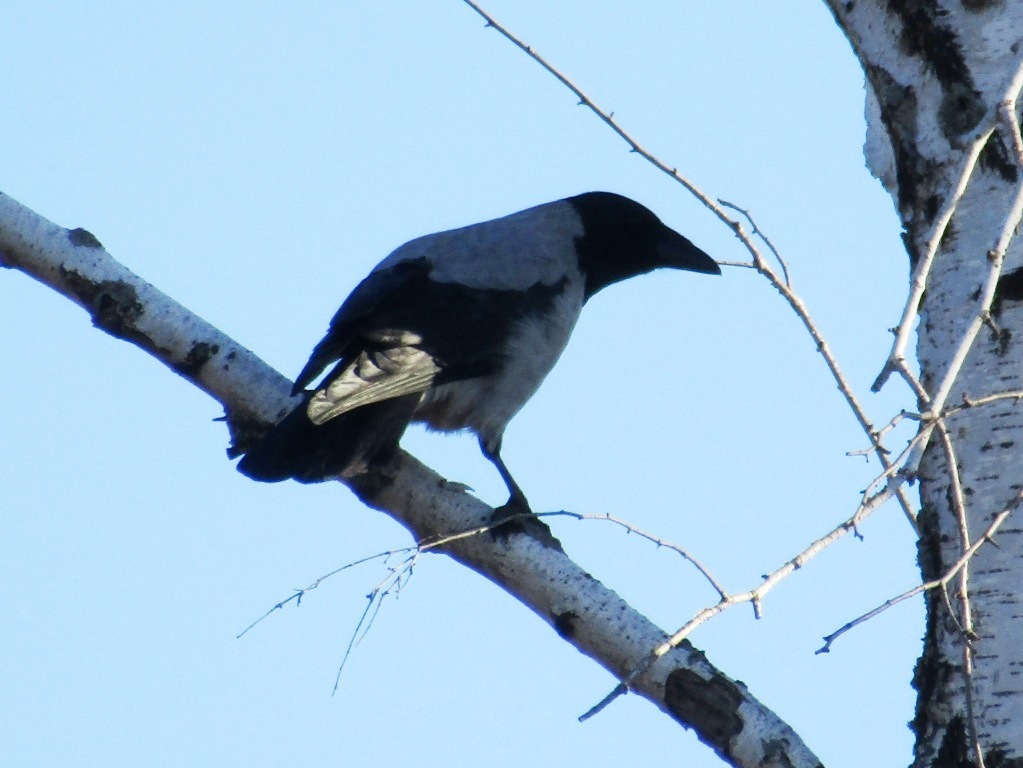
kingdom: Animalia
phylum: Chordata
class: Aves
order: Passeriformes
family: Corvidae
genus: Corvus
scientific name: Corvus cornix
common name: Hooded crow
